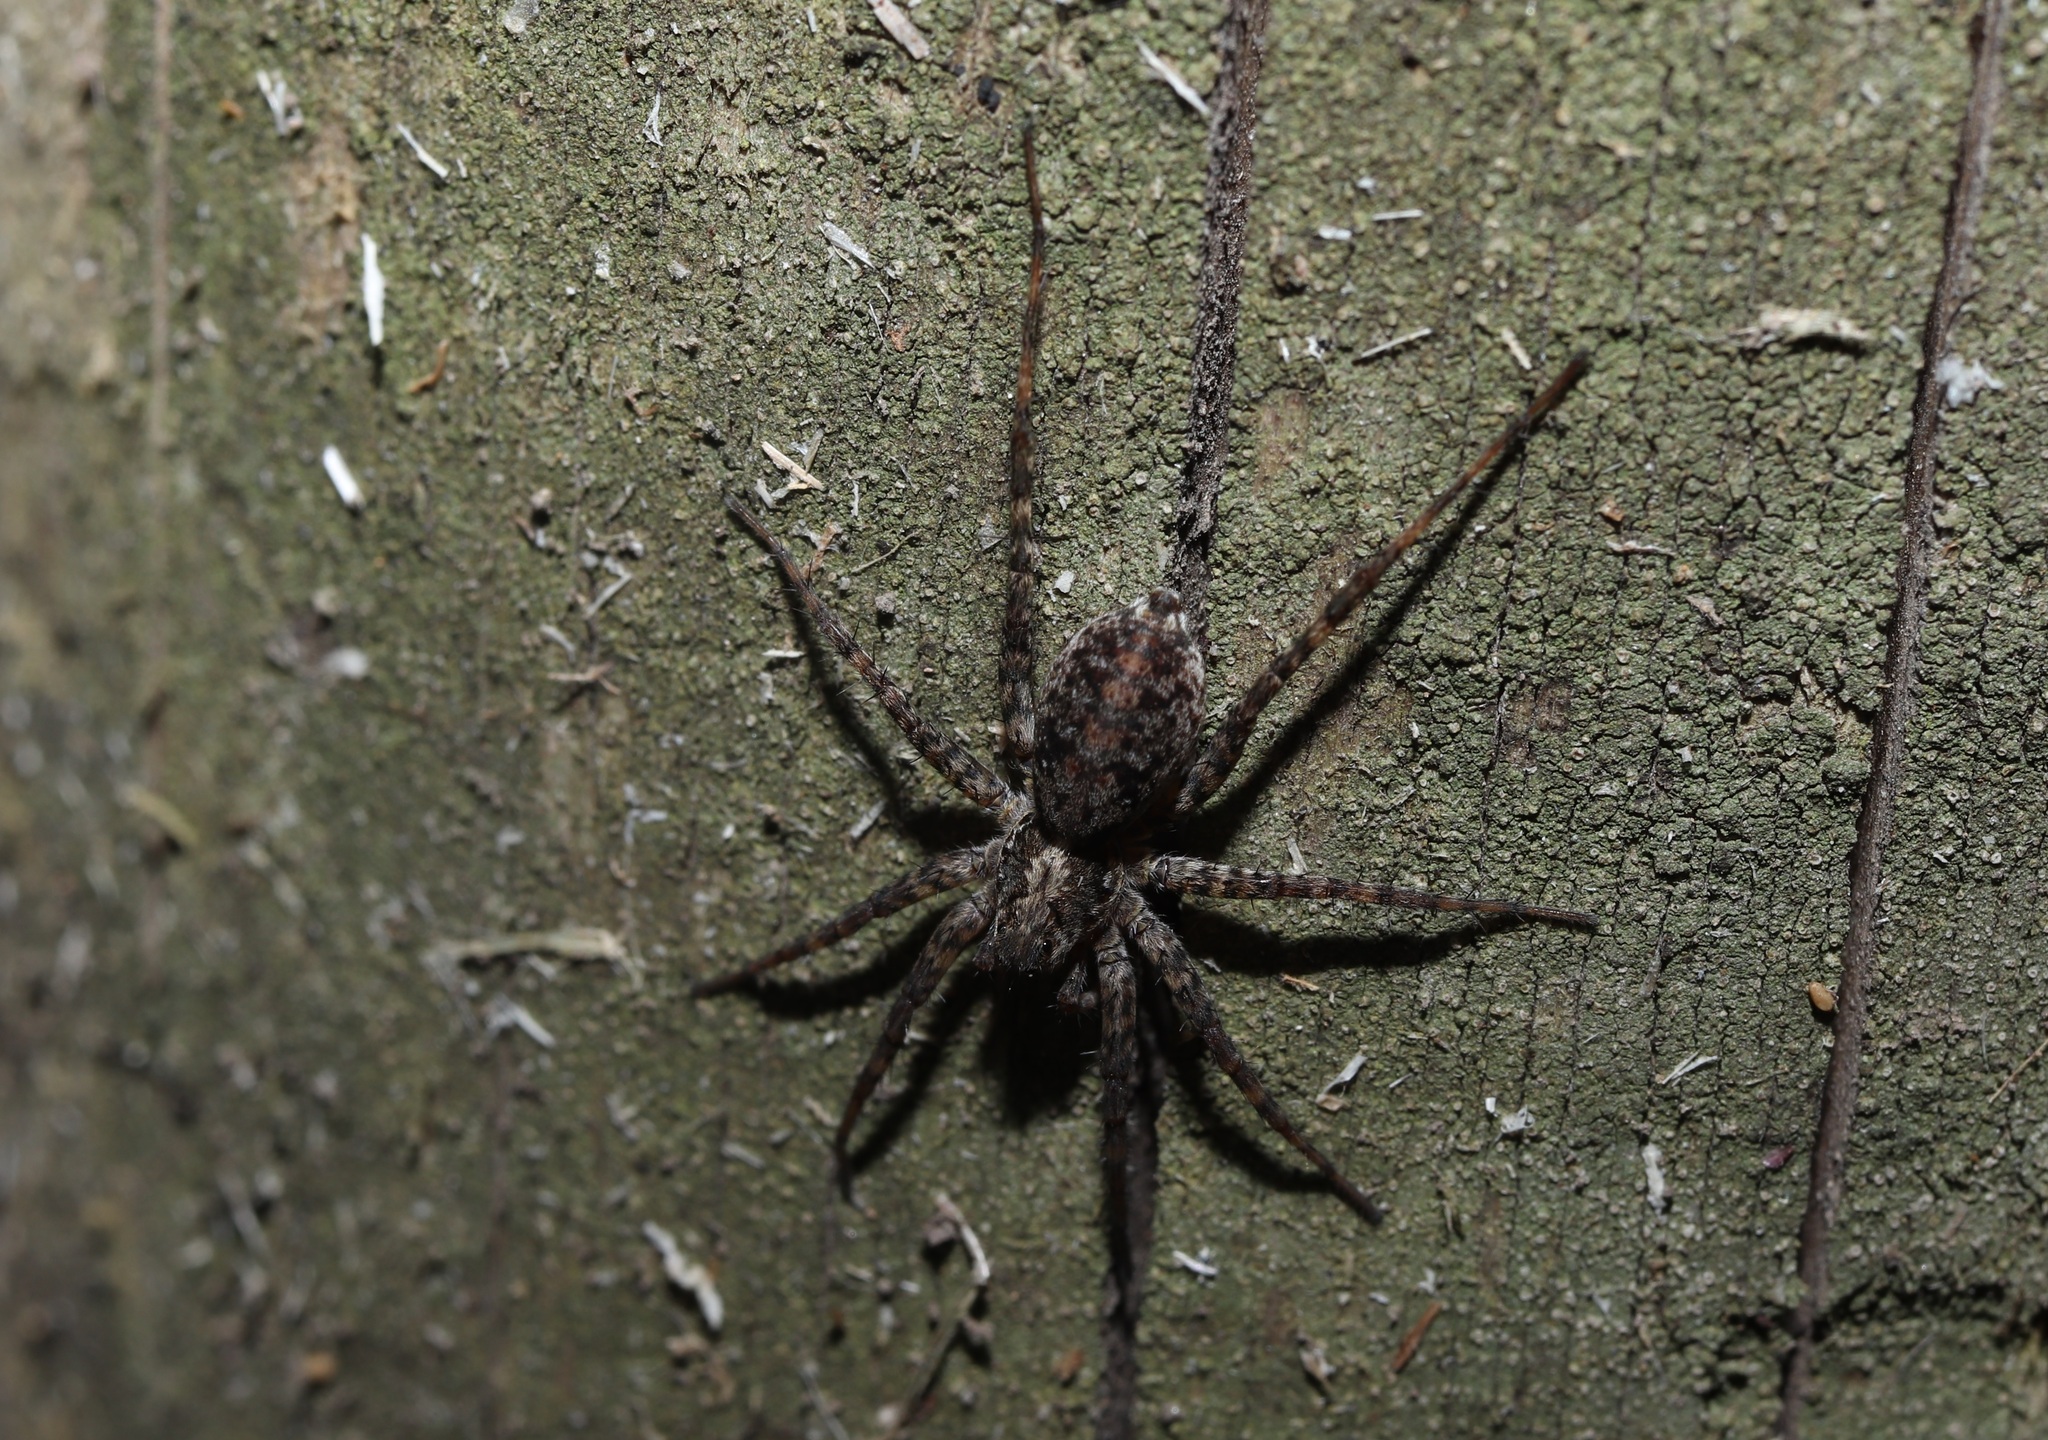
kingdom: Animalia
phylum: Arthropoda
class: Arachnida
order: Araneae
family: Lycosidae
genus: Pardosa
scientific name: Pardosa astrigera
